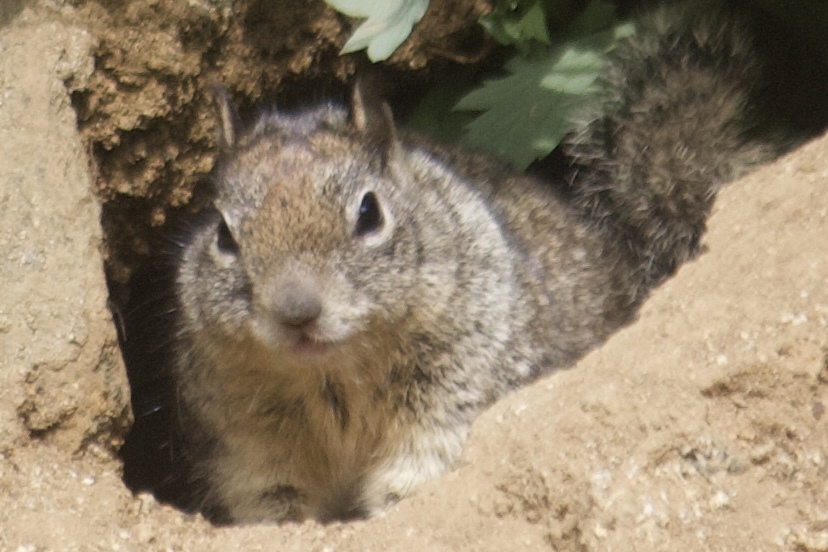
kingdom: Animalia
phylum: Chordata
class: Mammalia
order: Rodentia
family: Sciuridae
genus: Otospermophilus
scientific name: Otospermophilus beecheyi
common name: California ground squirrel
